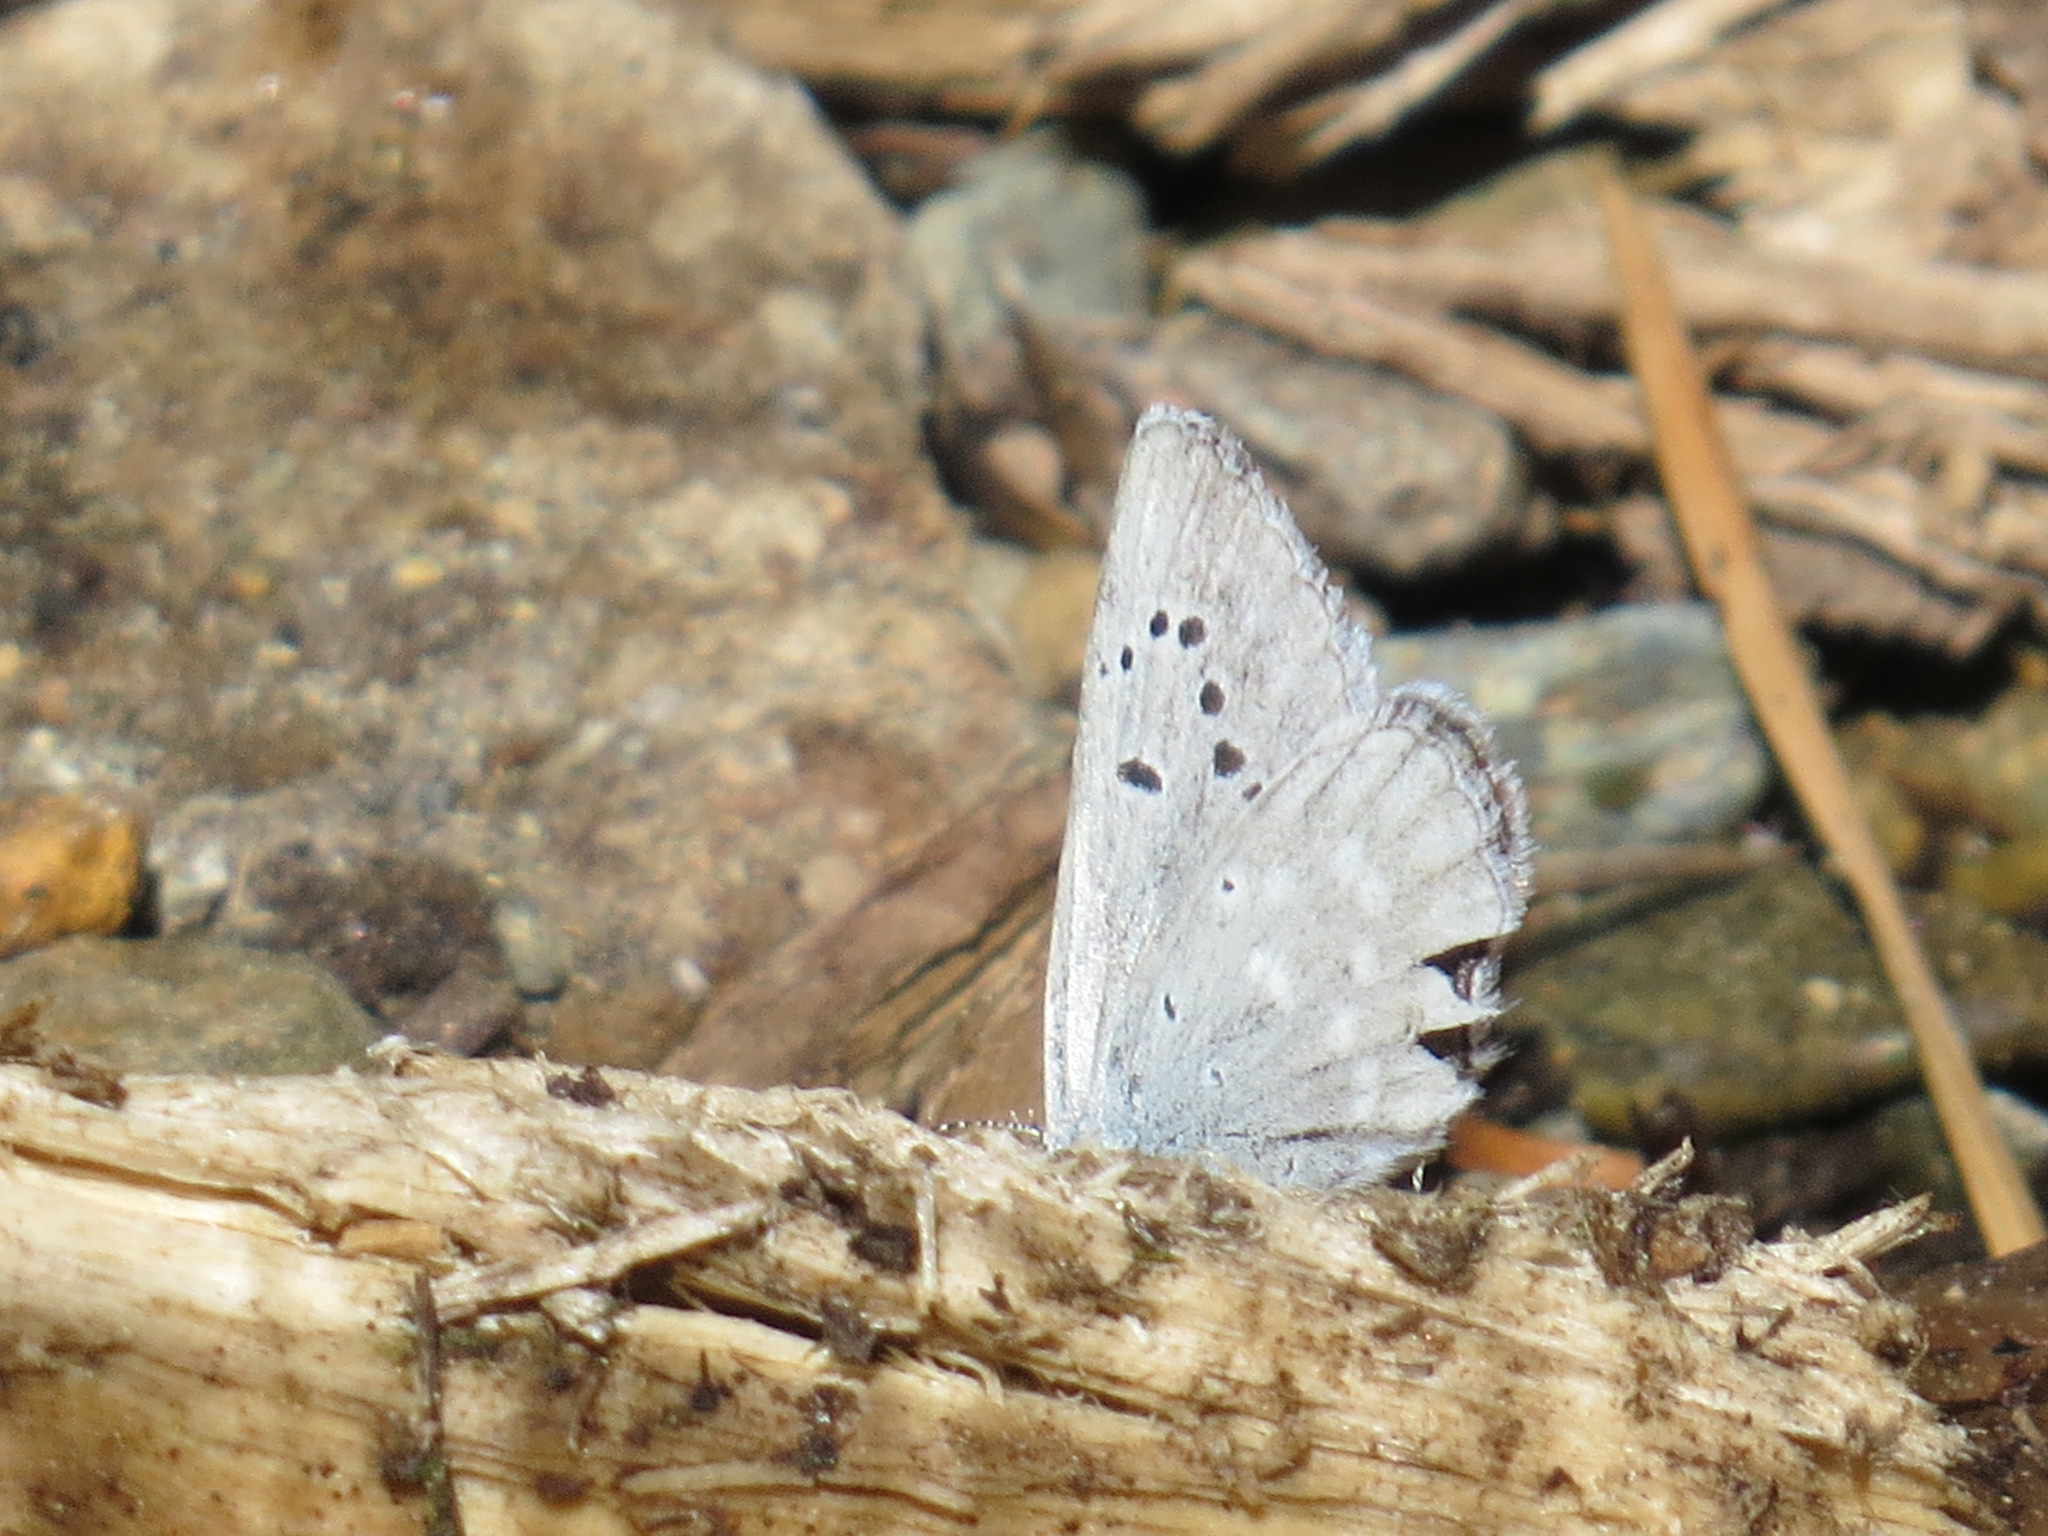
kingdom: Animalia
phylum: Arthropoda
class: Insecta
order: Lepidoptera
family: Lycaenidae
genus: Icaricia
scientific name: Icaricia icarioides
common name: Boisduval's blue
